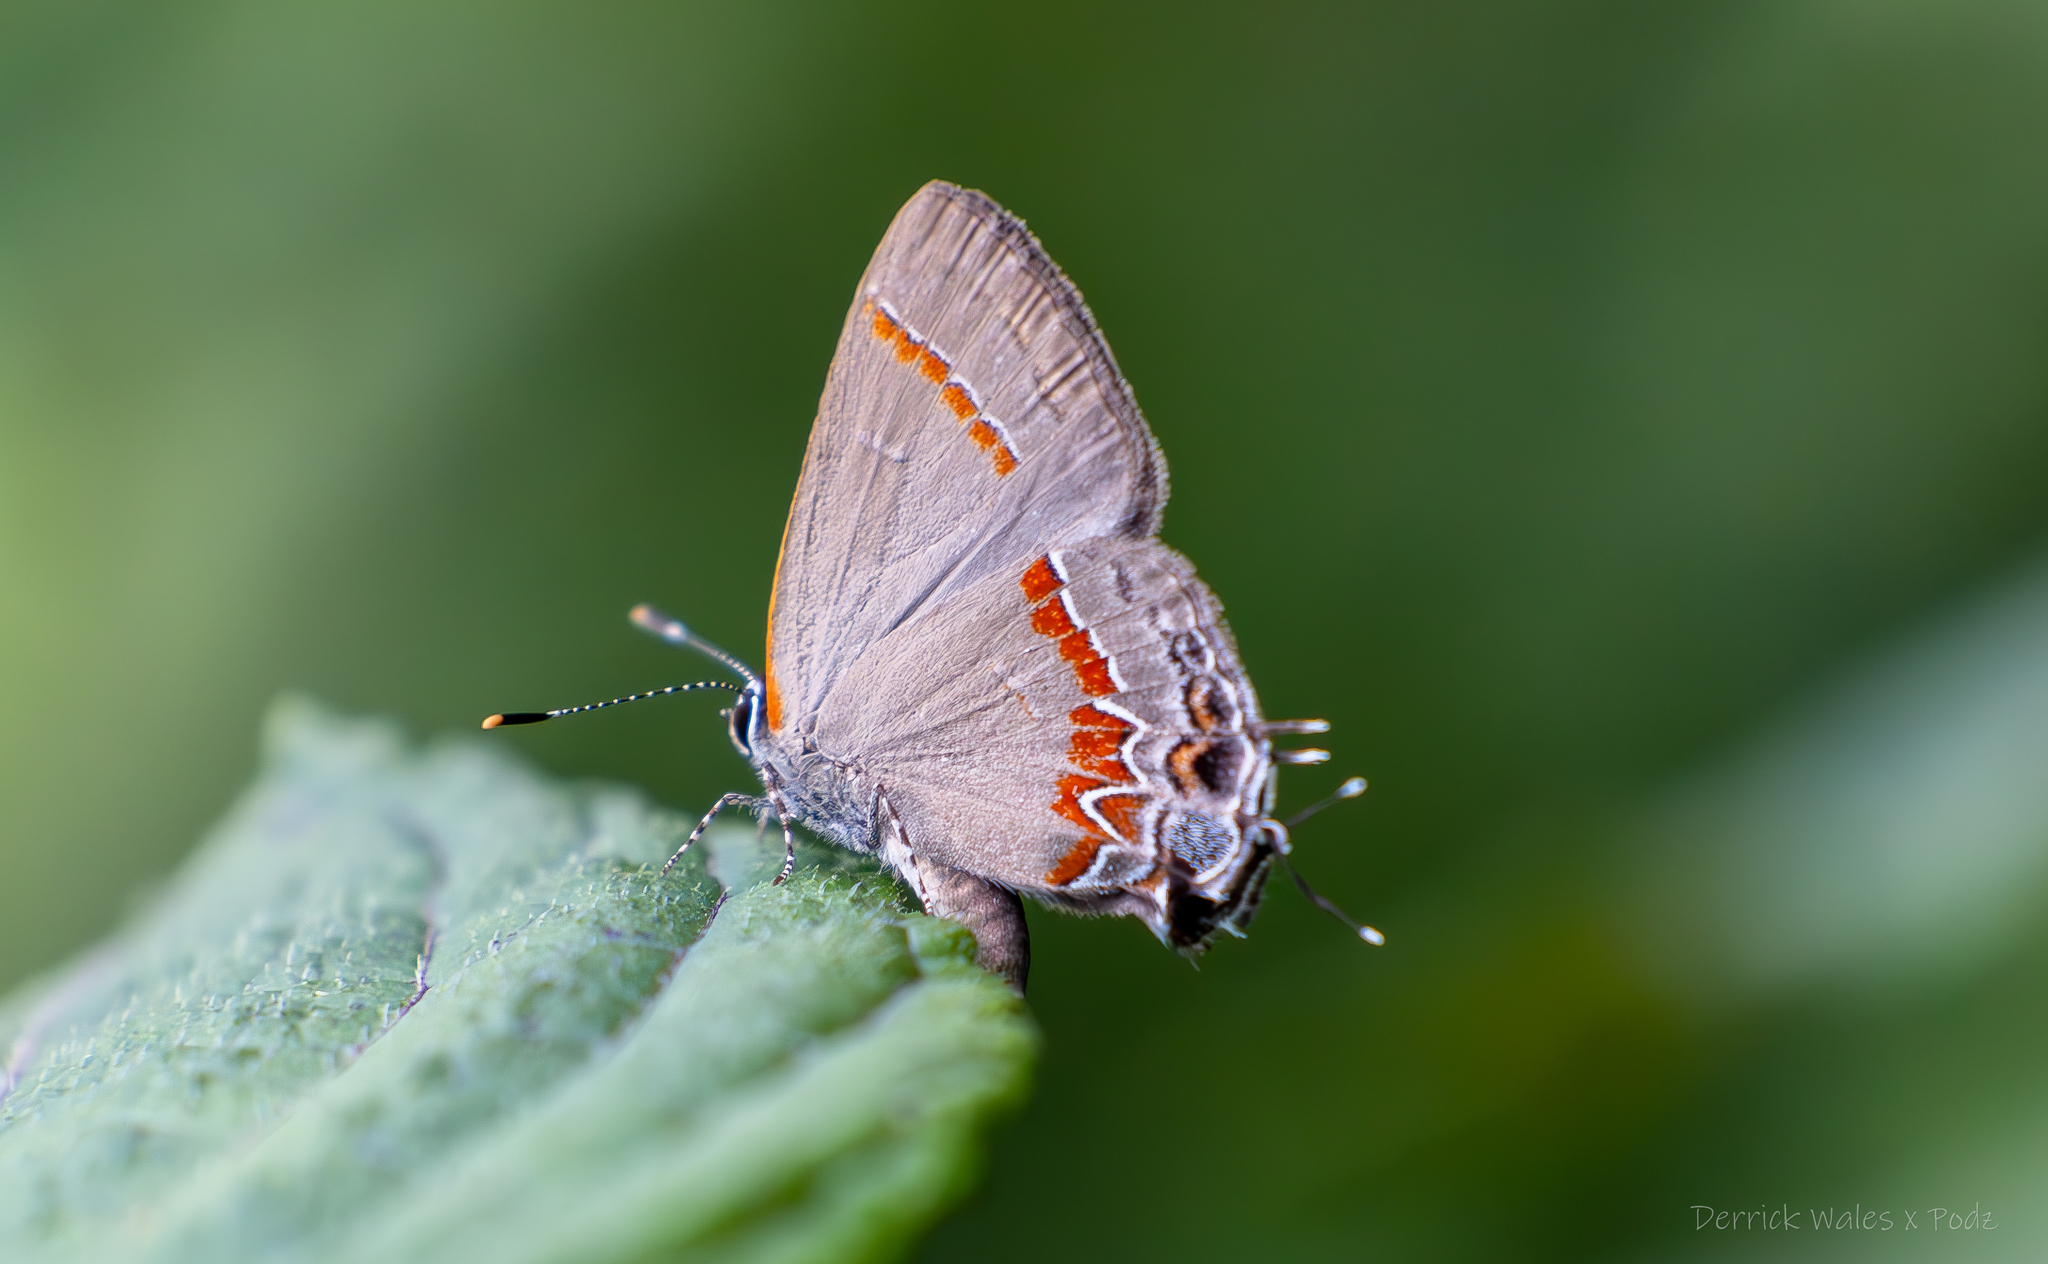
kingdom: Animalia
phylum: Arthropoda
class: Insecta
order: Lepidoptera
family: Lycaenidae
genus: Calycopis
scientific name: Calycopis cecrops
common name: Red-banded hairstreak
